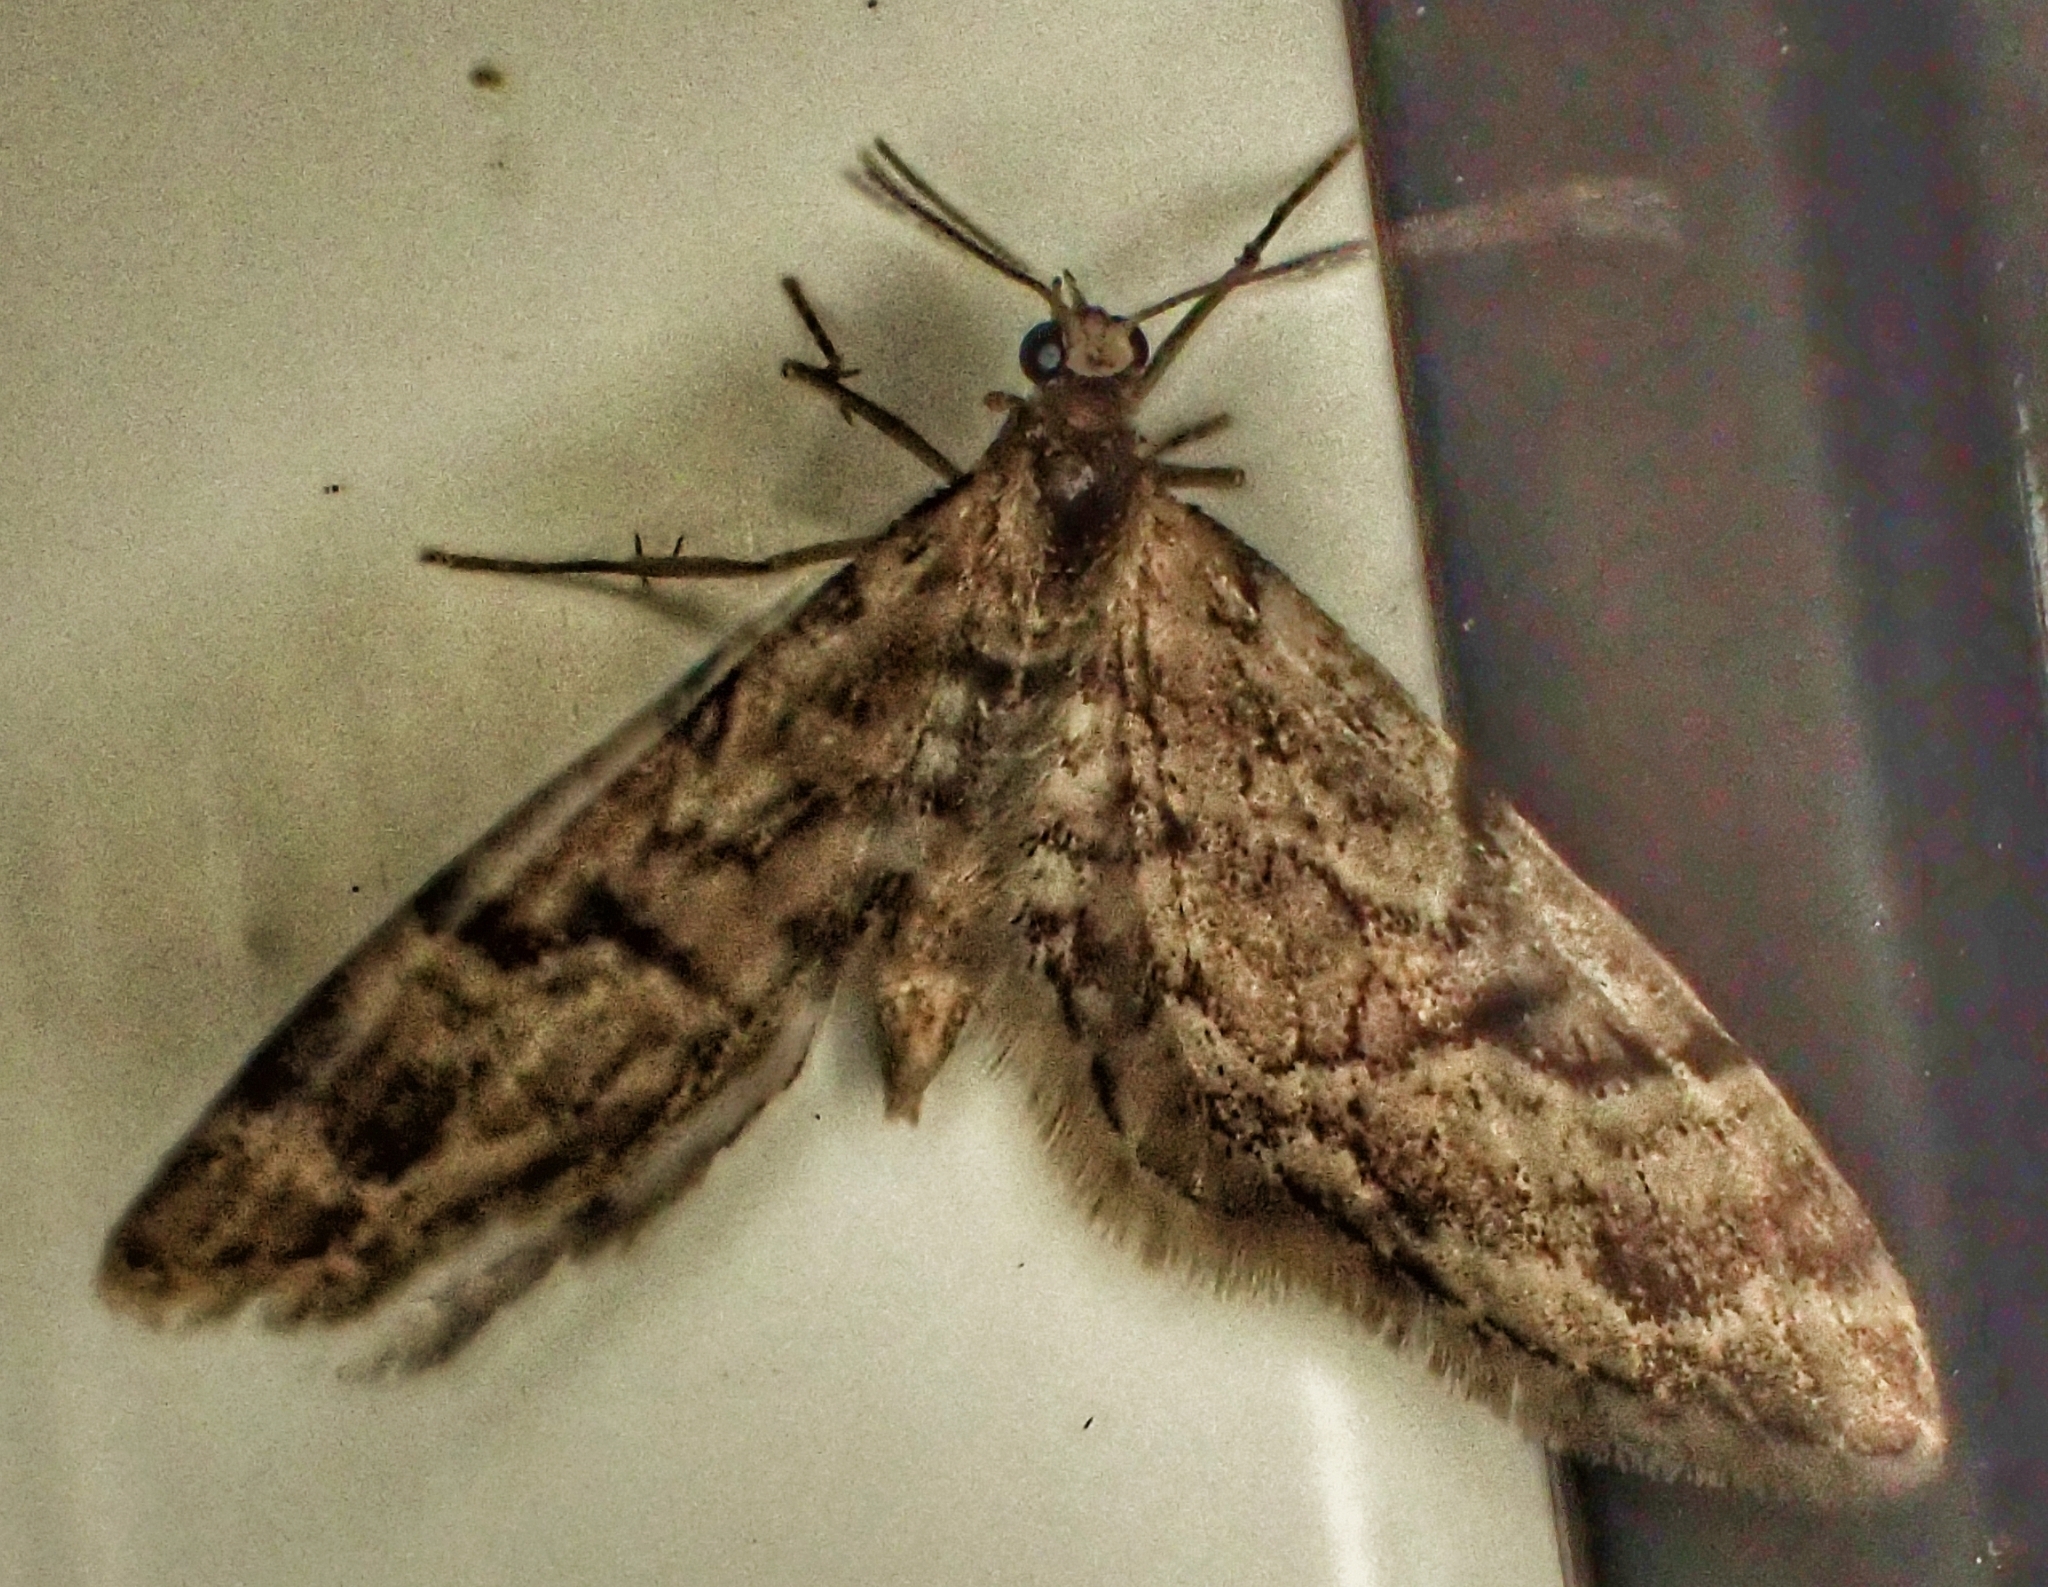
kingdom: Animalia
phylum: Arthropoda
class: Insecta
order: Lepidoptera
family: Geometridae
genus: Eupithecia
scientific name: Eupithecia lanceata
